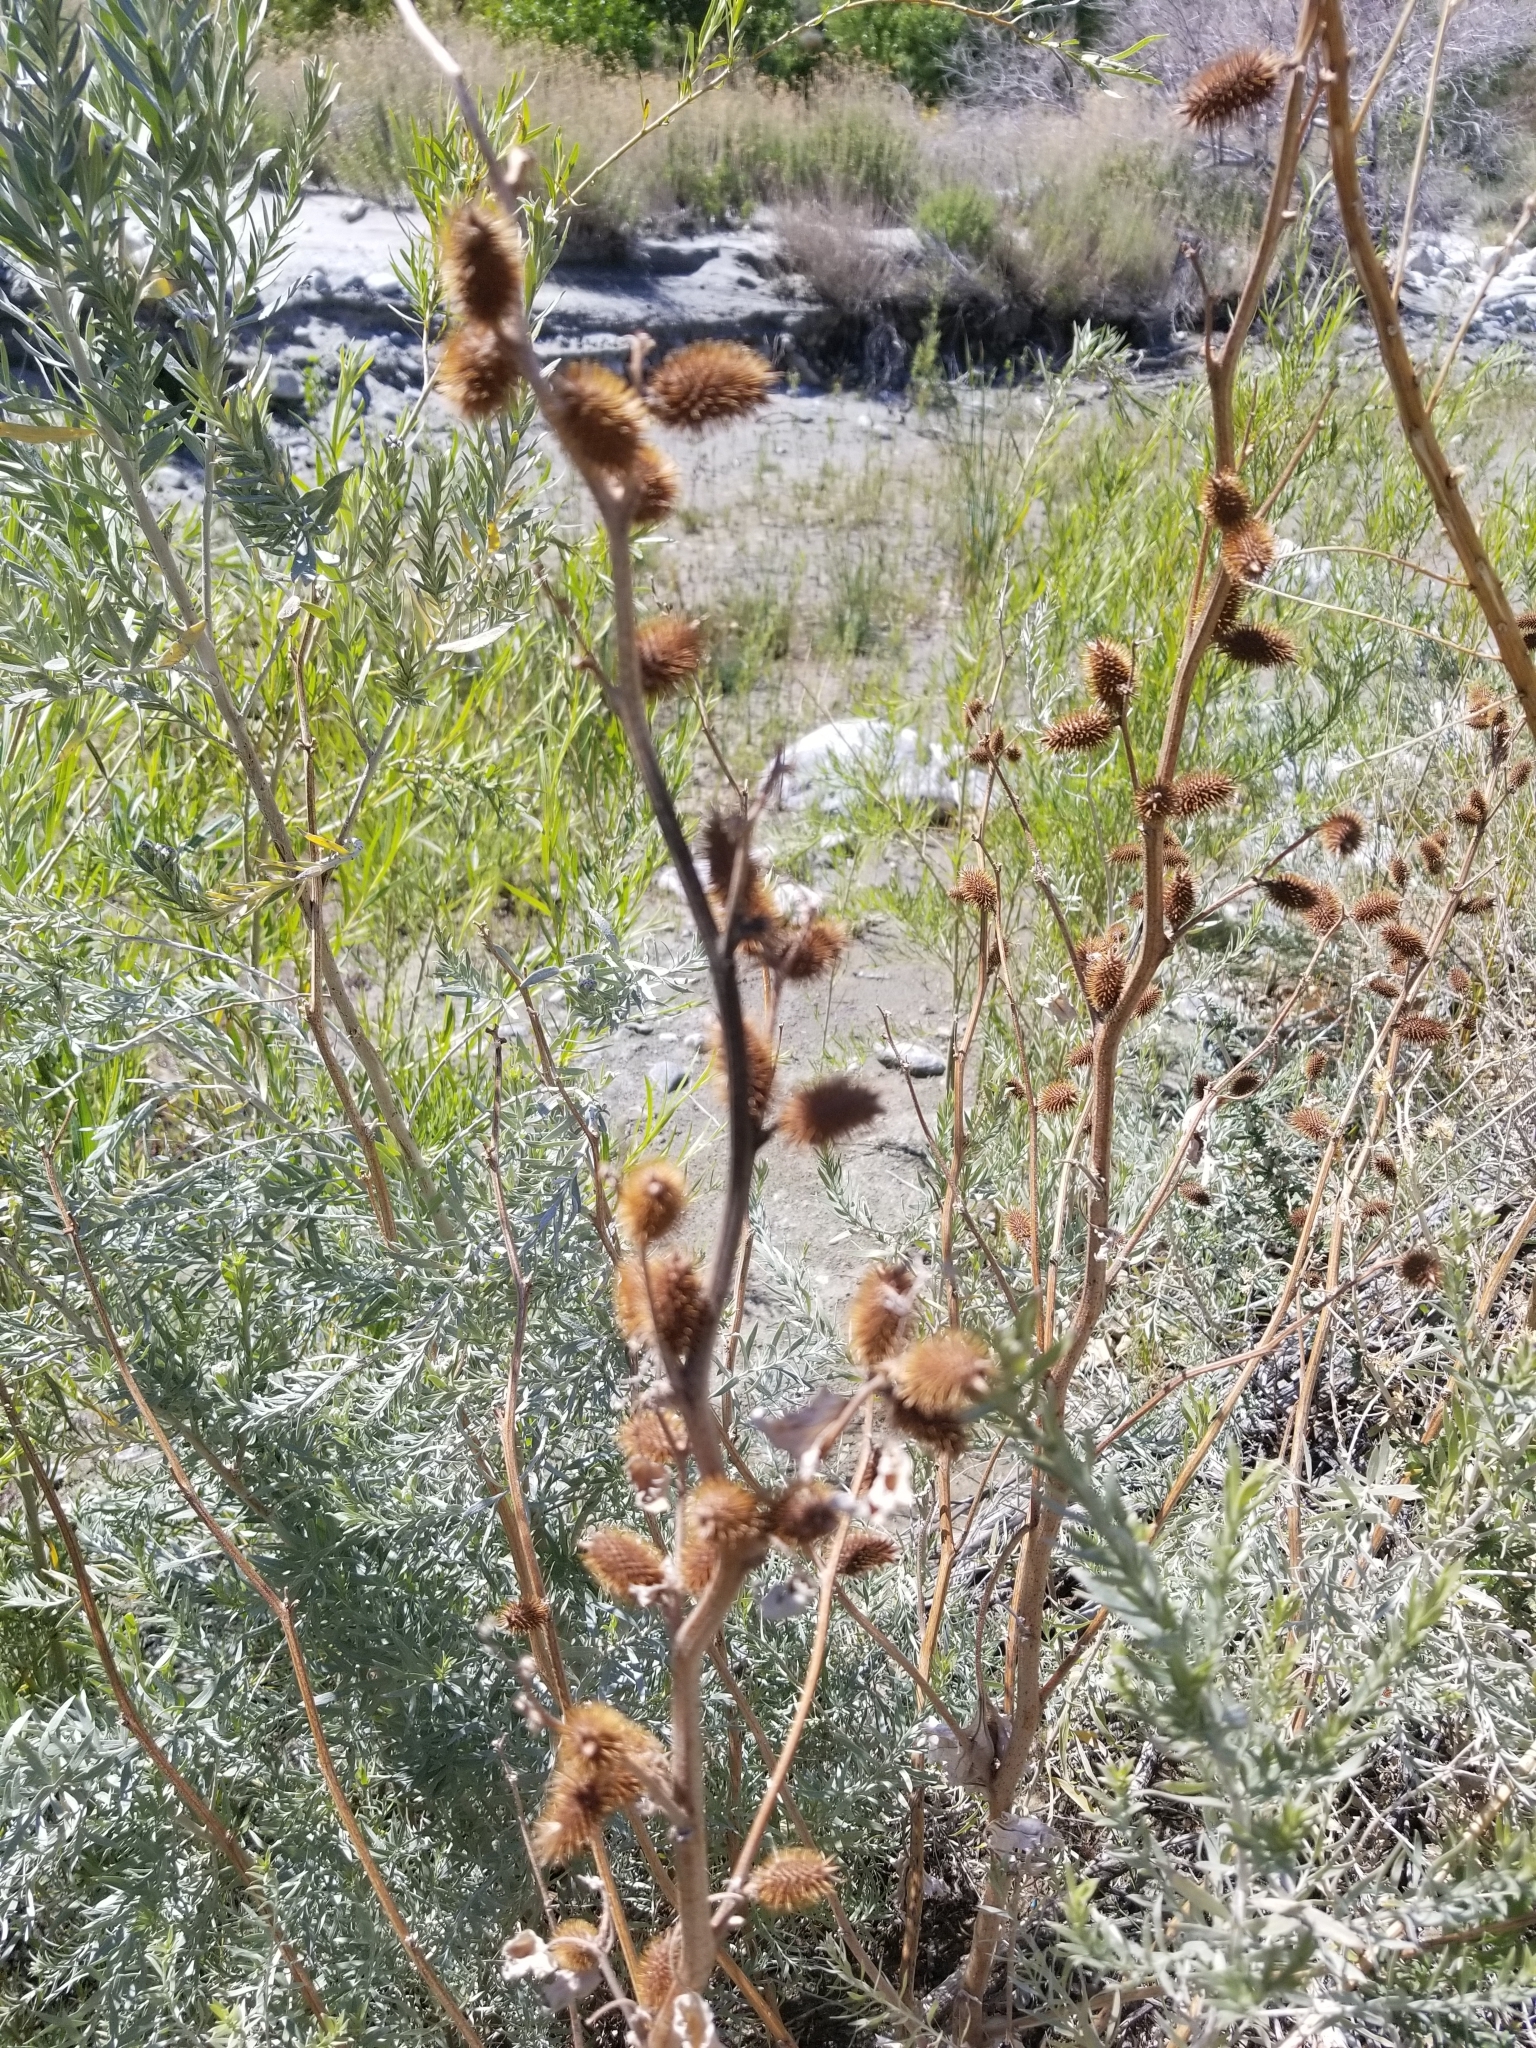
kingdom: Plantae
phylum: Tracheophyta
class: Magnoliopsida
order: Asterales
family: Asteraceae
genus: Xanthium
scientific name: Xanthium strumarium
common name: Rough cocklebur
